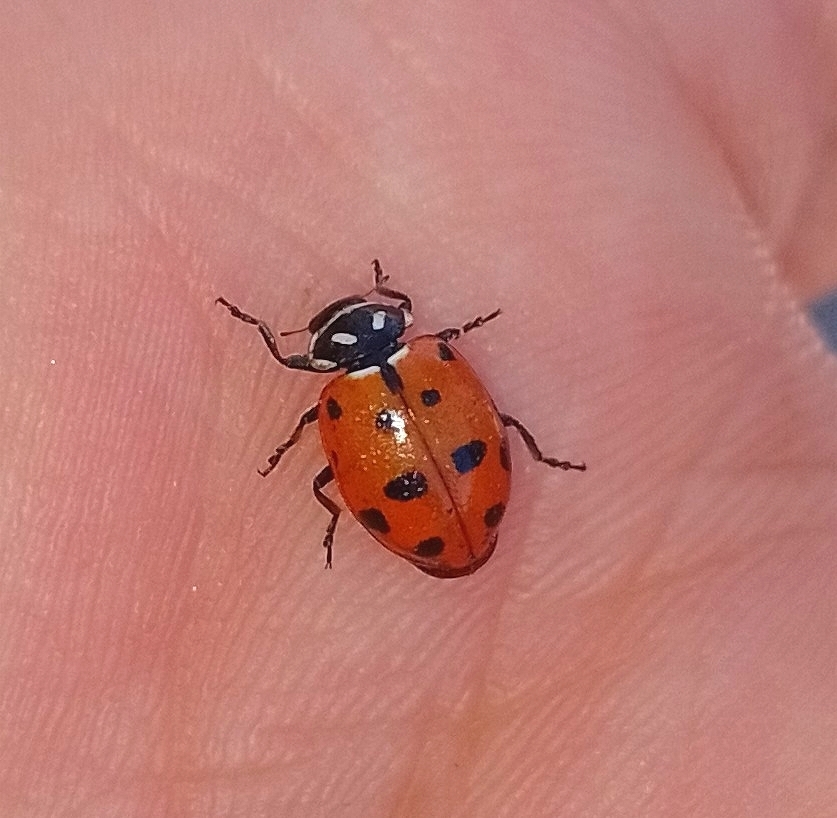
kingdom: Animalia
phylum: Arthropoda
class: Insecta
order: Coleoptera
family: Coccinellidae
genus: Hippodamia
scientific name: Hippodamia convergens
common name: Convergent lady beetle
